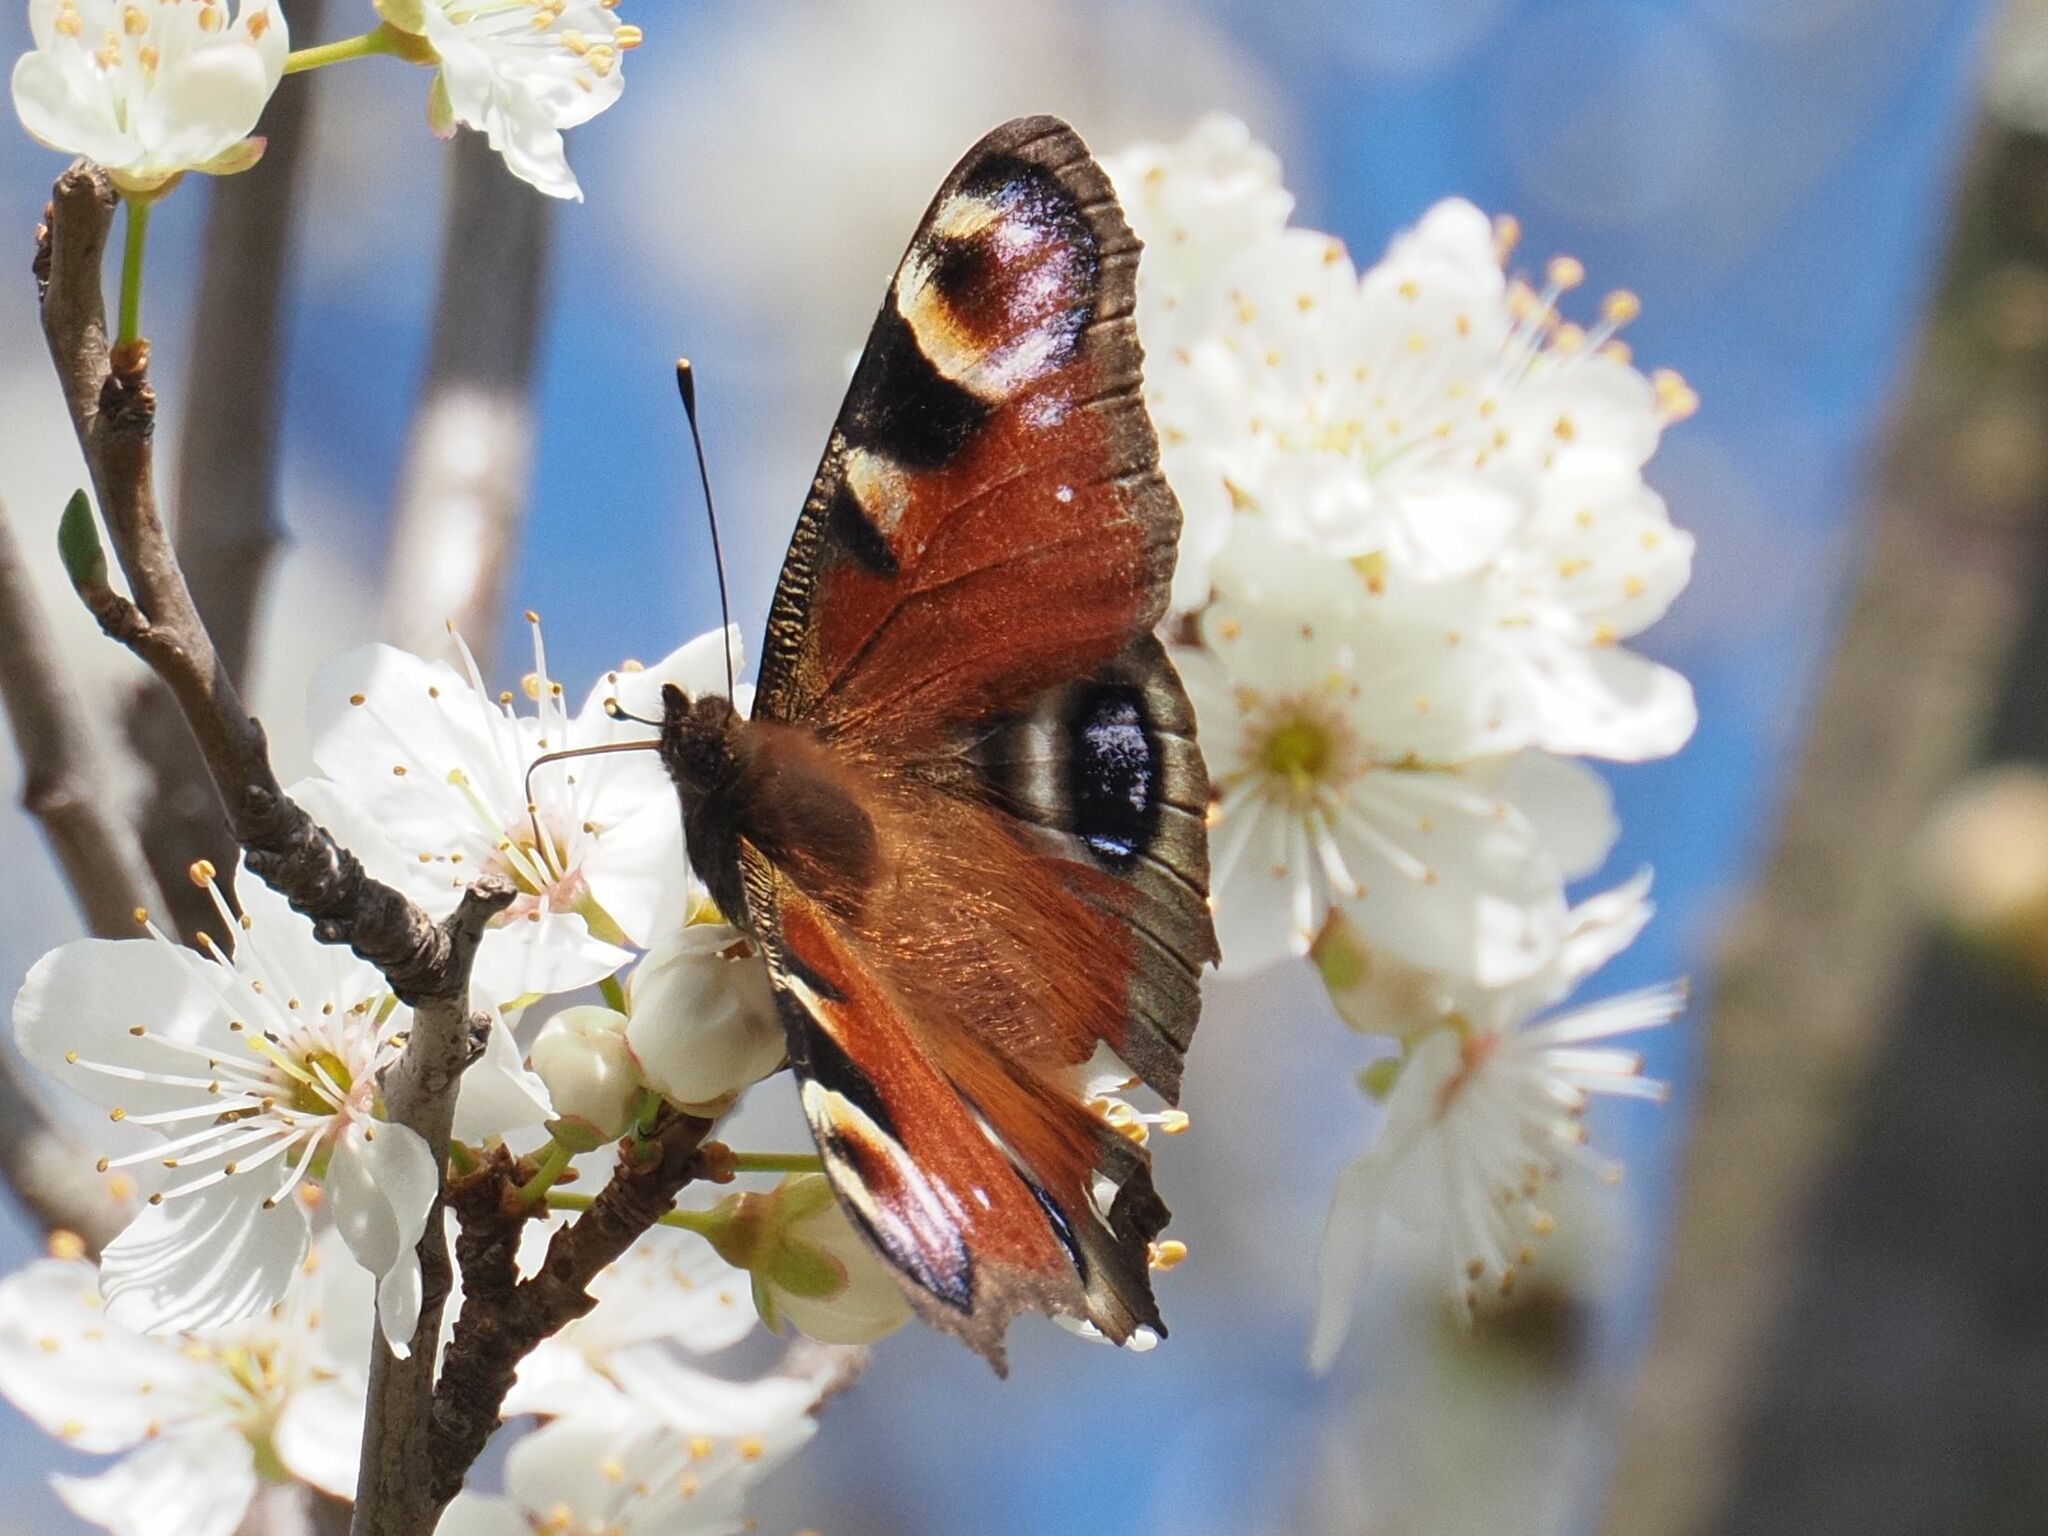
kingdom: Animalia
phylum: Arthropoda
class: Insecta
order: Lepidoptera
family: Nymphalidae
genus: Aglais
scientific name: Aglais io
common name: Peacock
